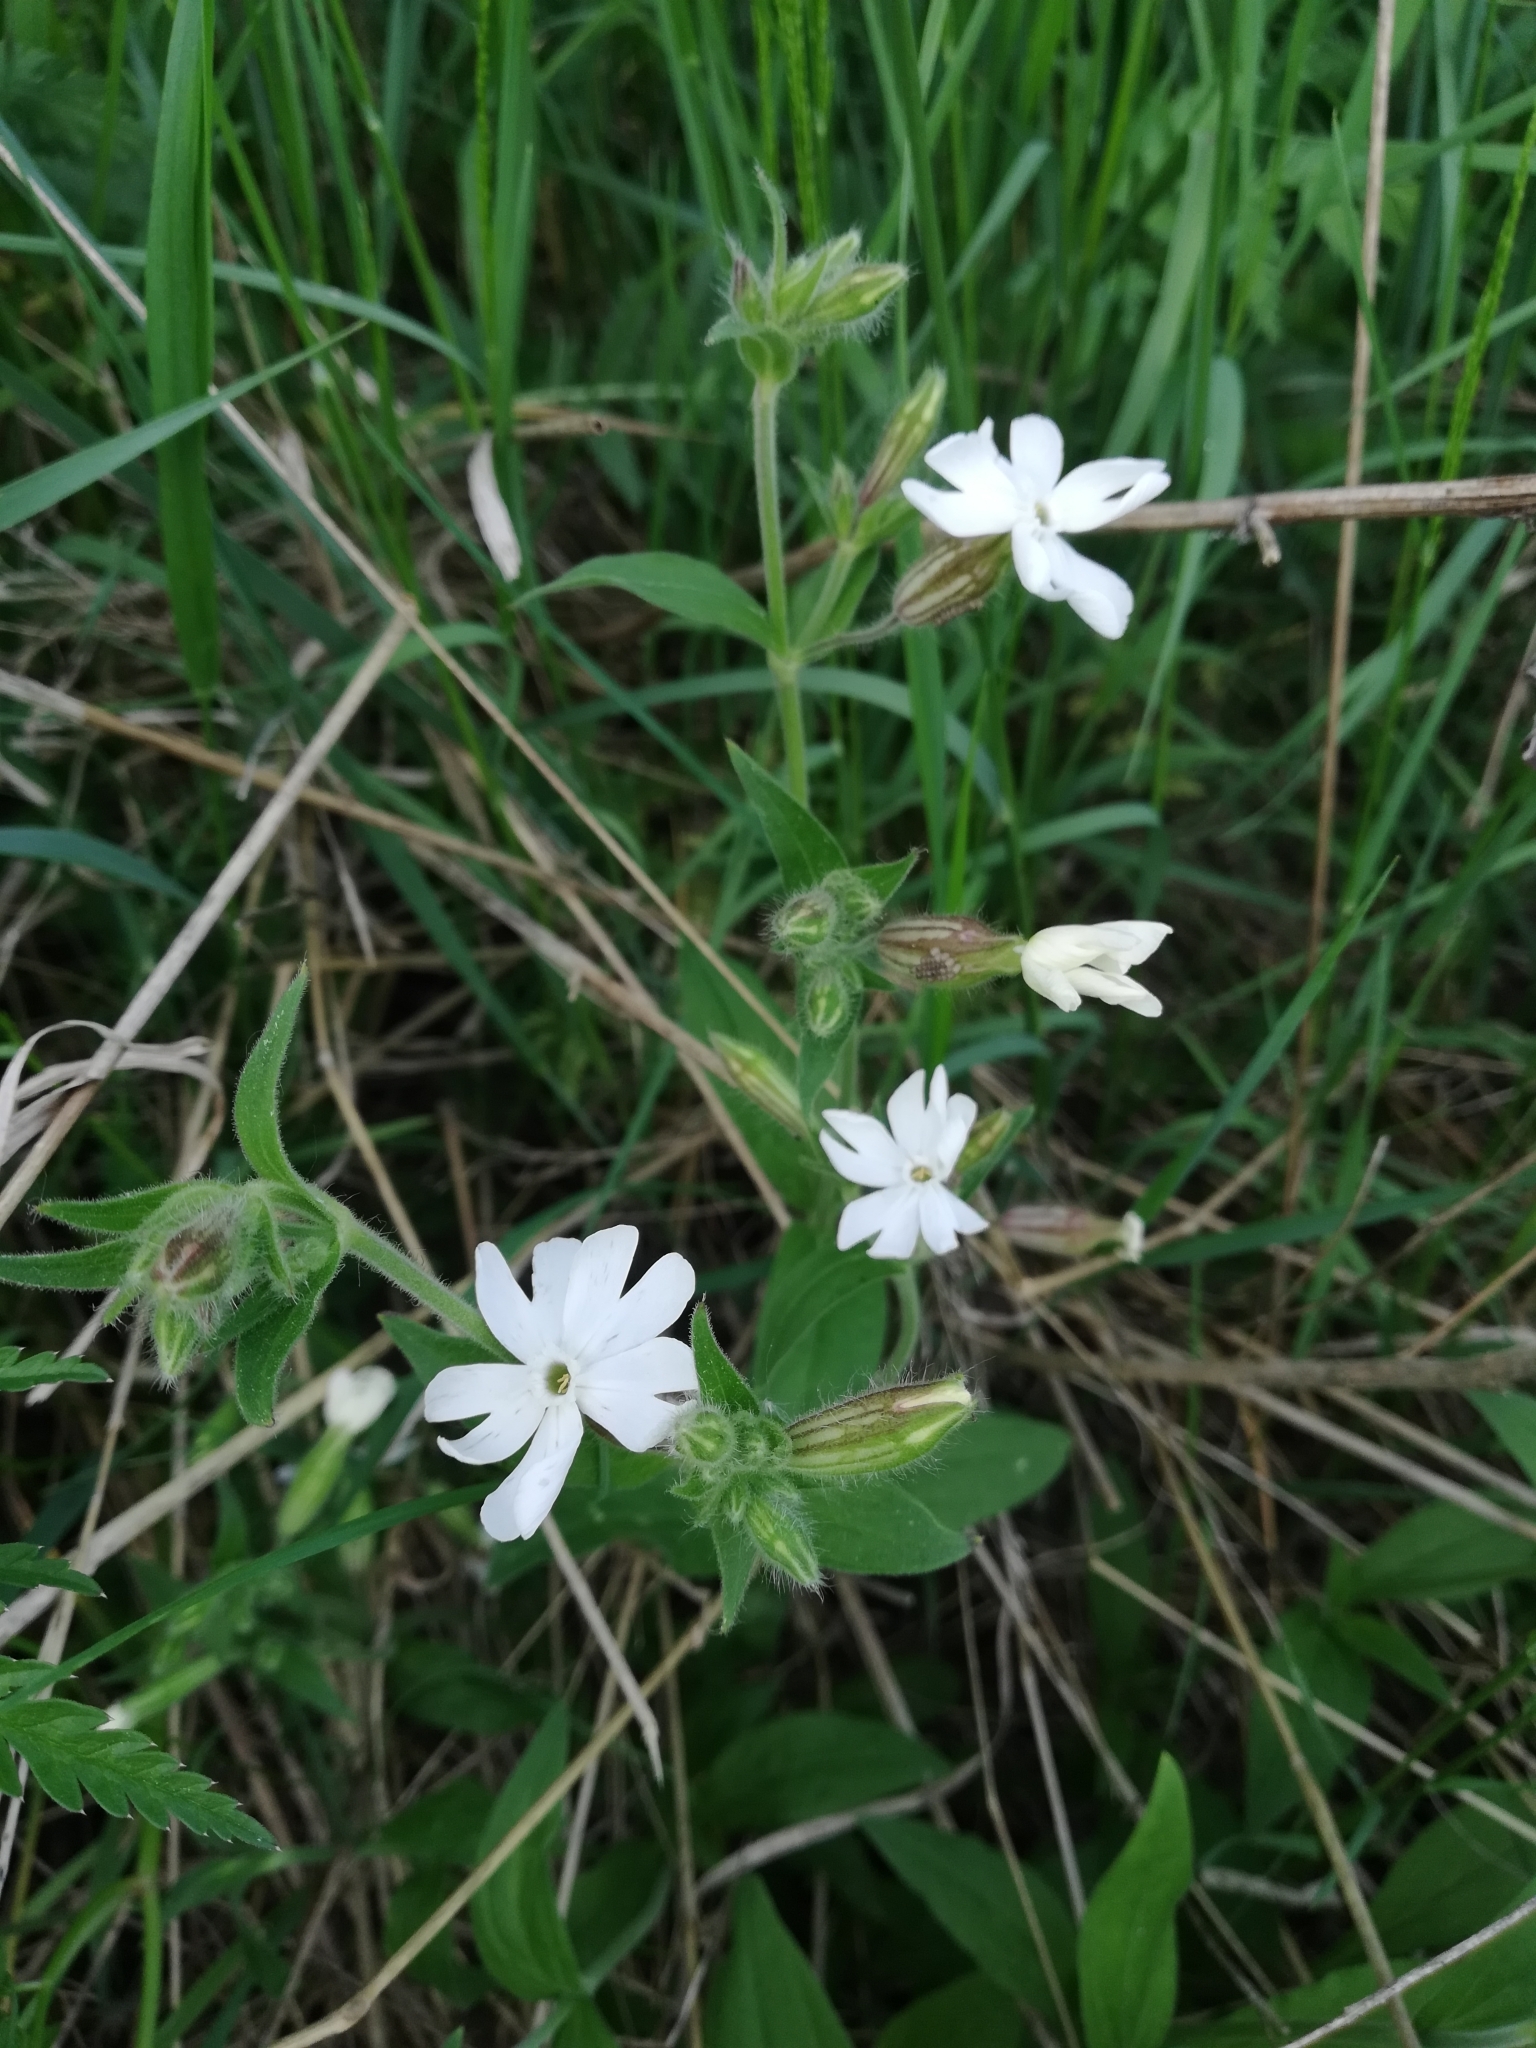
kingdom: Plantae
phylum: Tracheophyta
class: Magnoliopsida
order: Caryophyllales
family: Caryophyllaceae
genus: Silene
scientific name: Silene latifolia
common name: White campion
